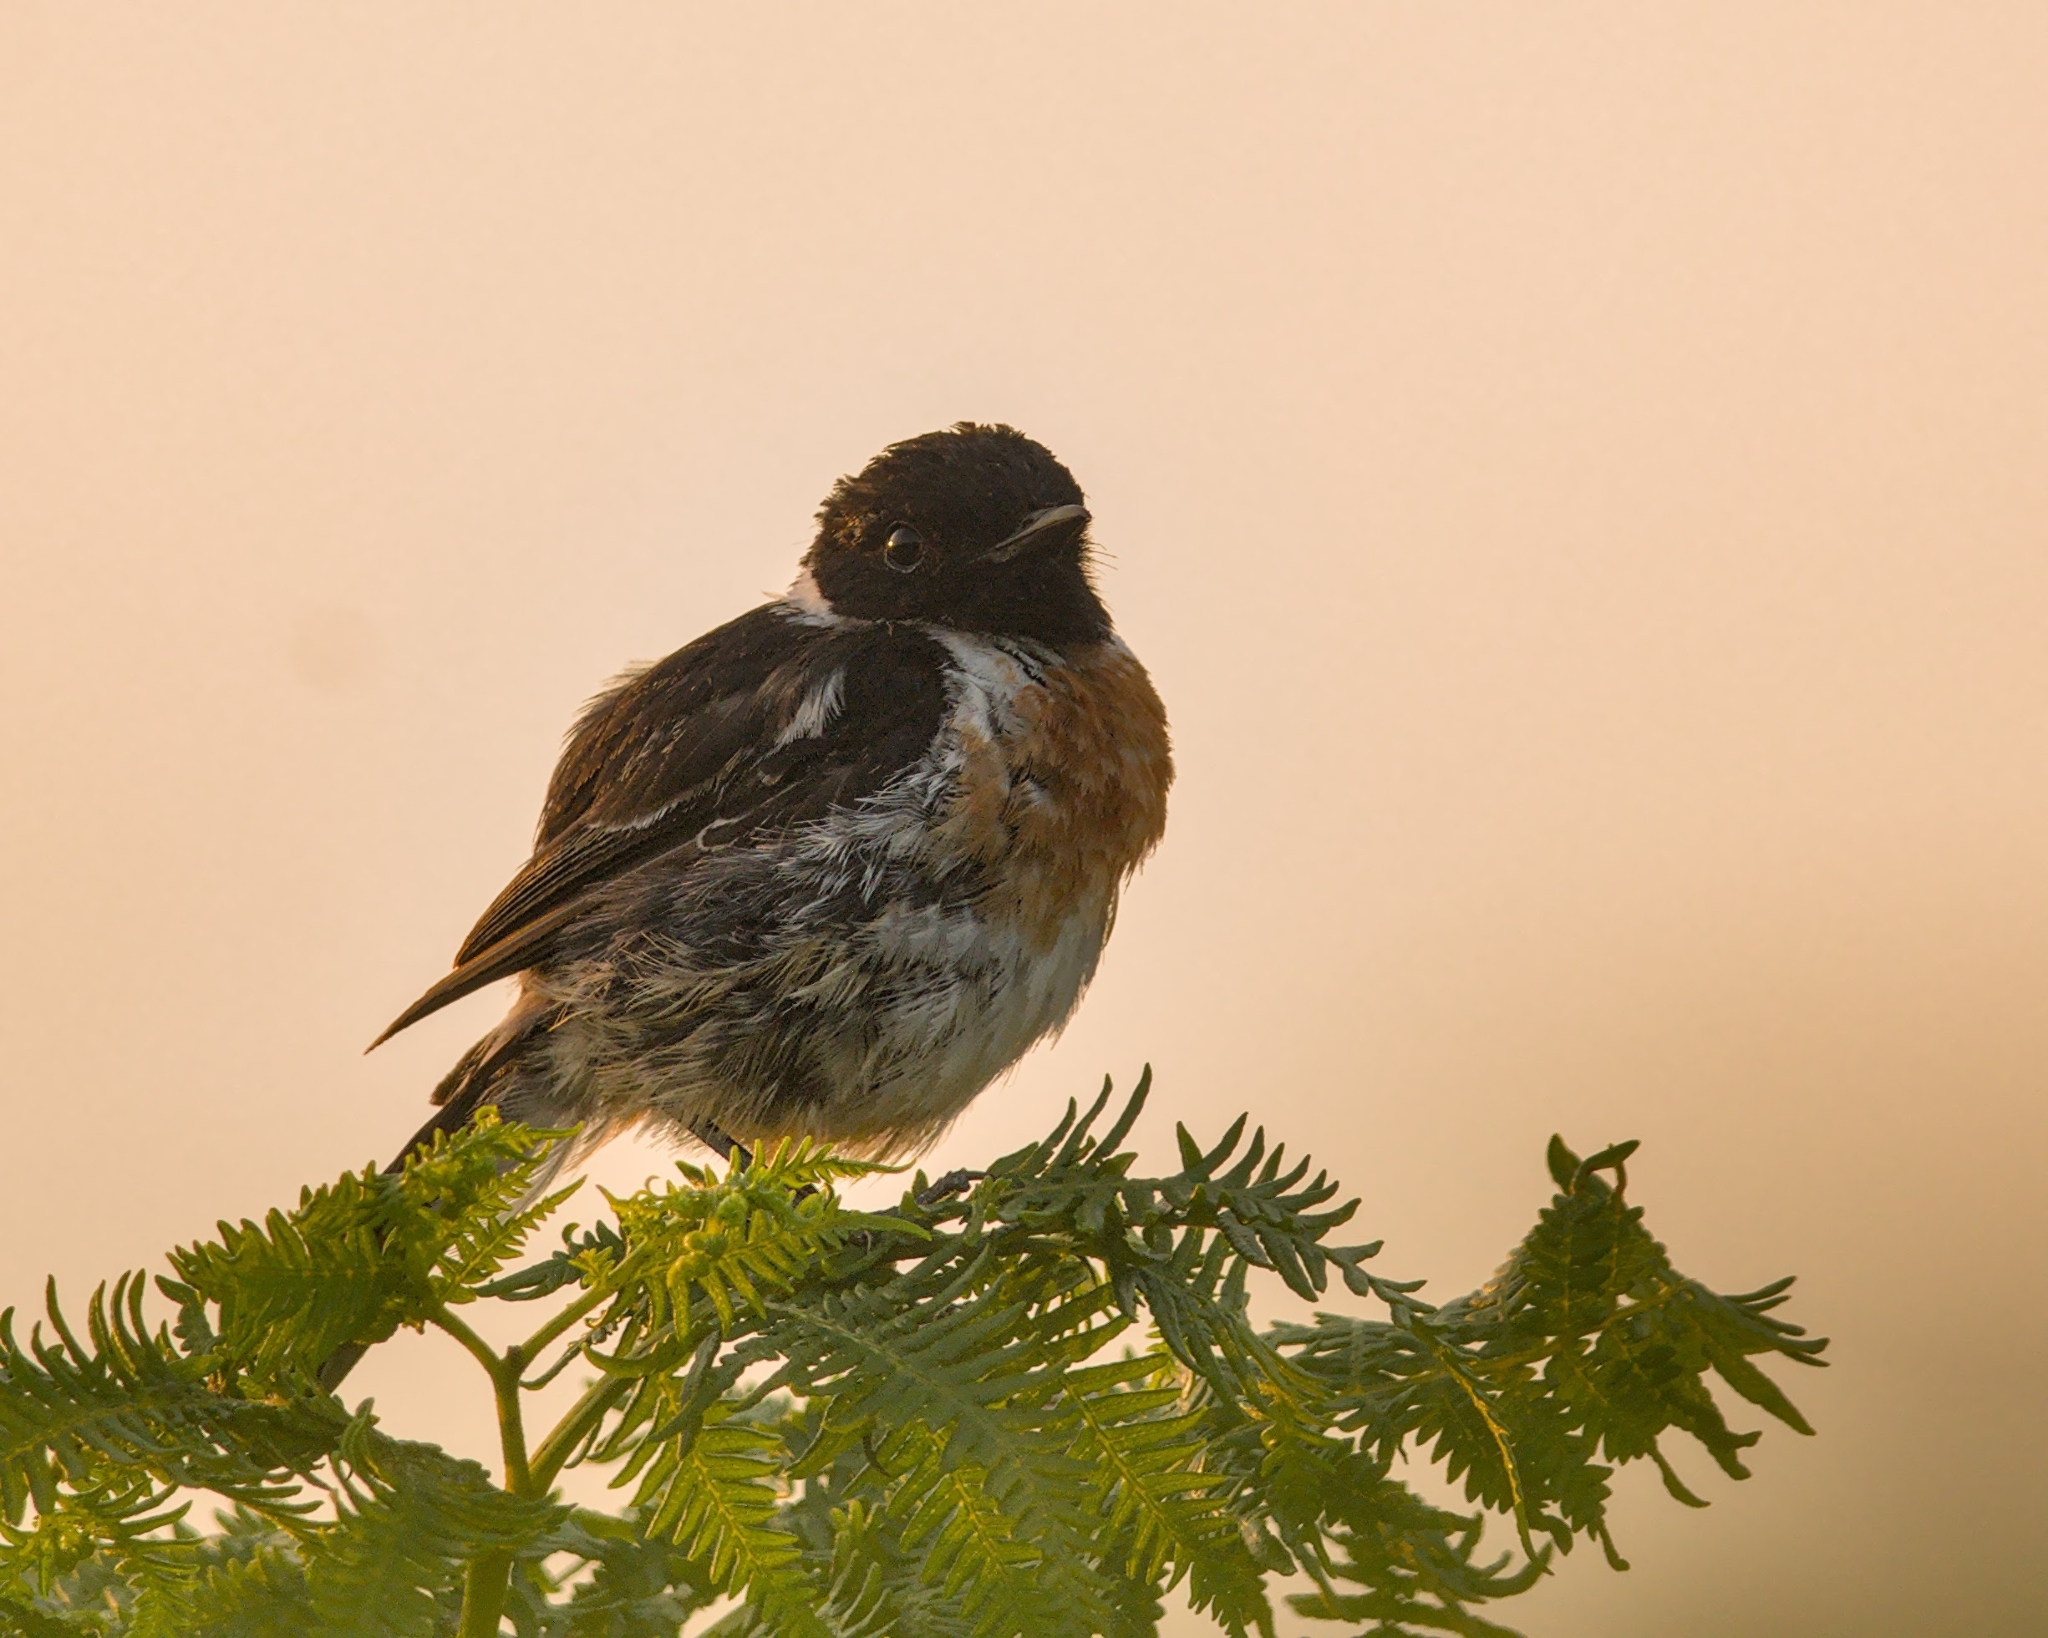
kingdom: Animalia
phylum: Chordata
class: Aves
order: Passeriformes
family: Muscicapidae
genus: Saxicola
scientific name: Saxicola rubicola
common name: European stonechat
